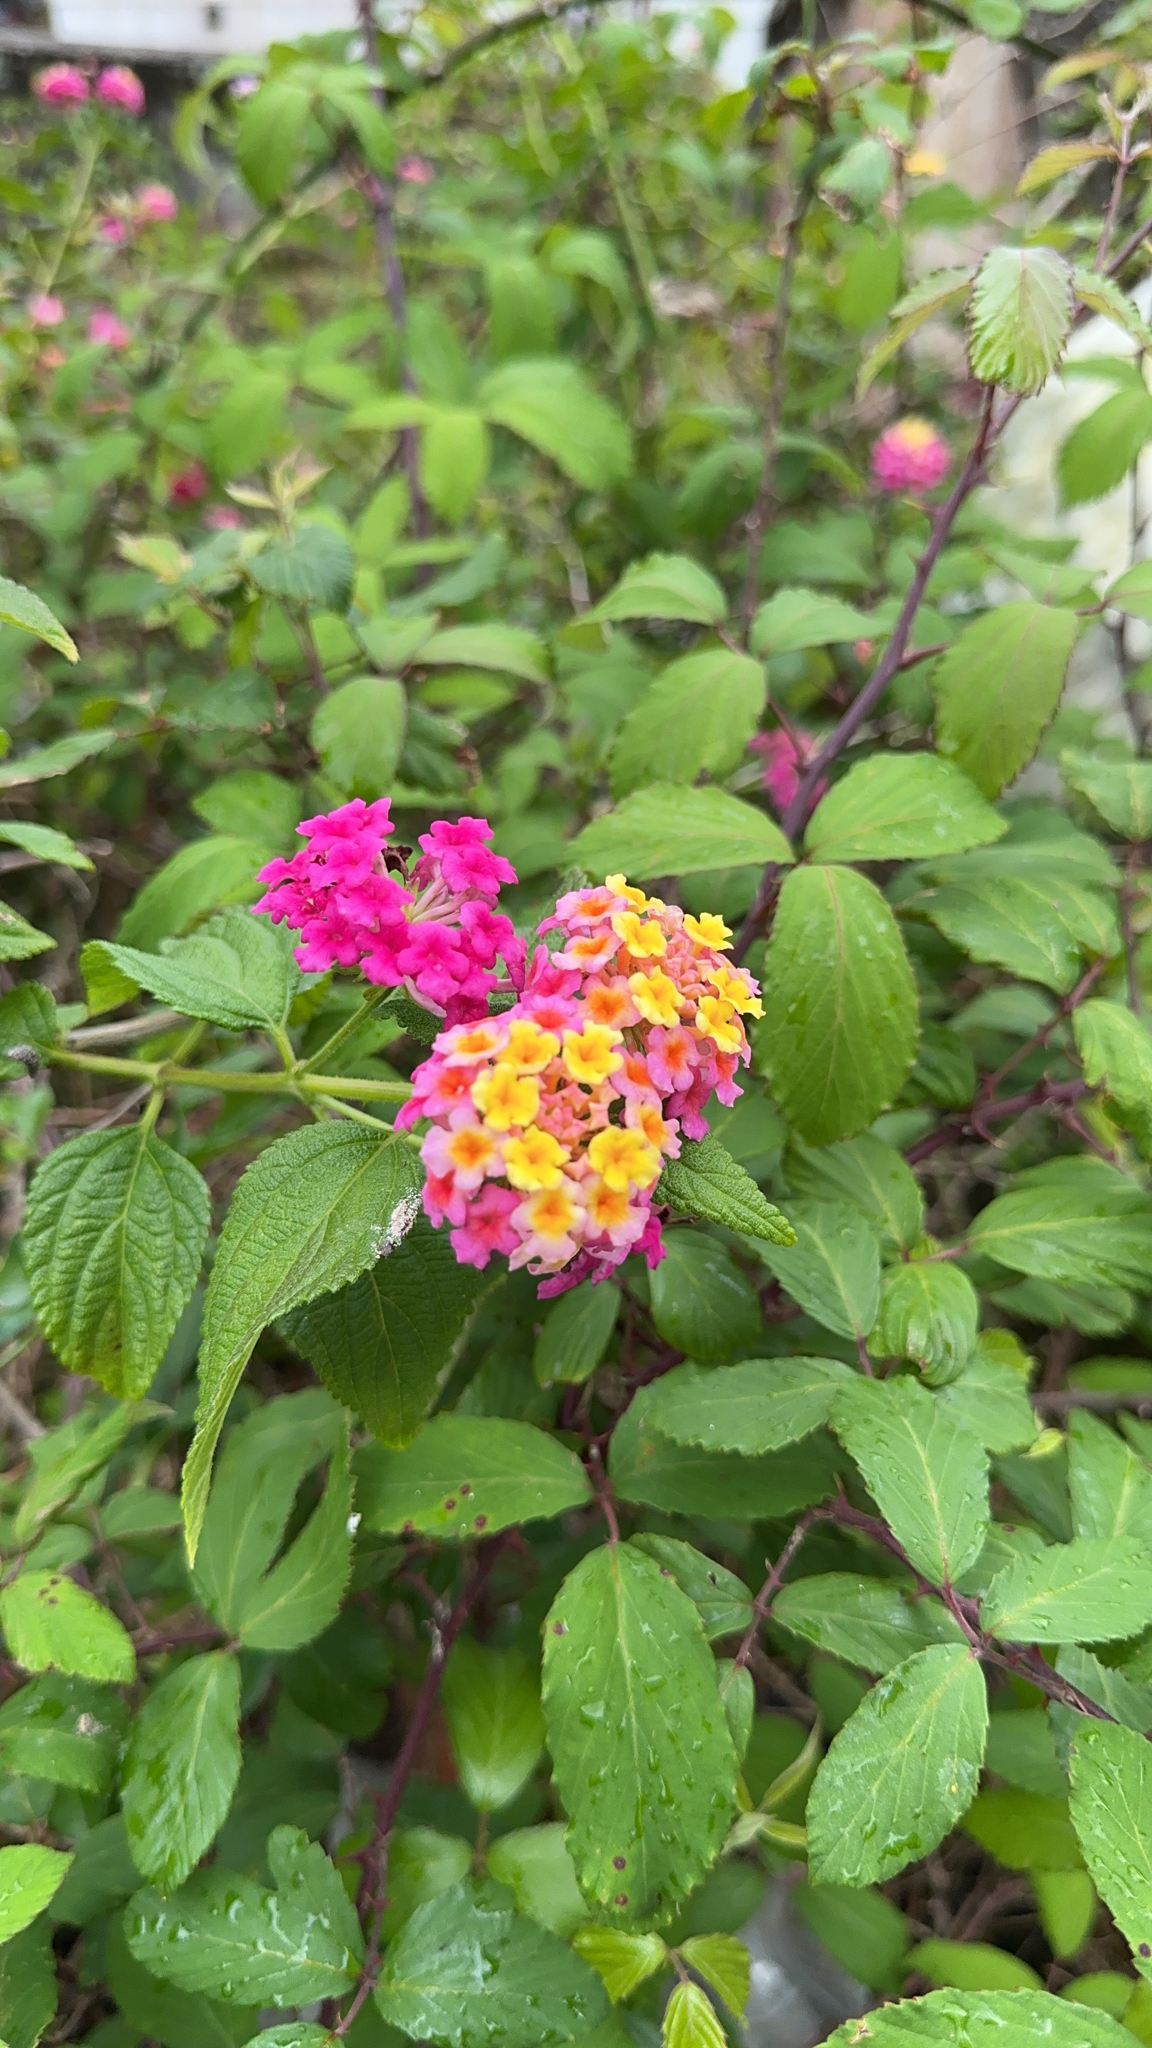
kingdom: Plantae
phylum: Tracheophyta
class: Magnoliopsida
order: Lamiales
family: Verbenaceae
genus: Lantana
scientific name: Lantana camara
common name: Lantana
